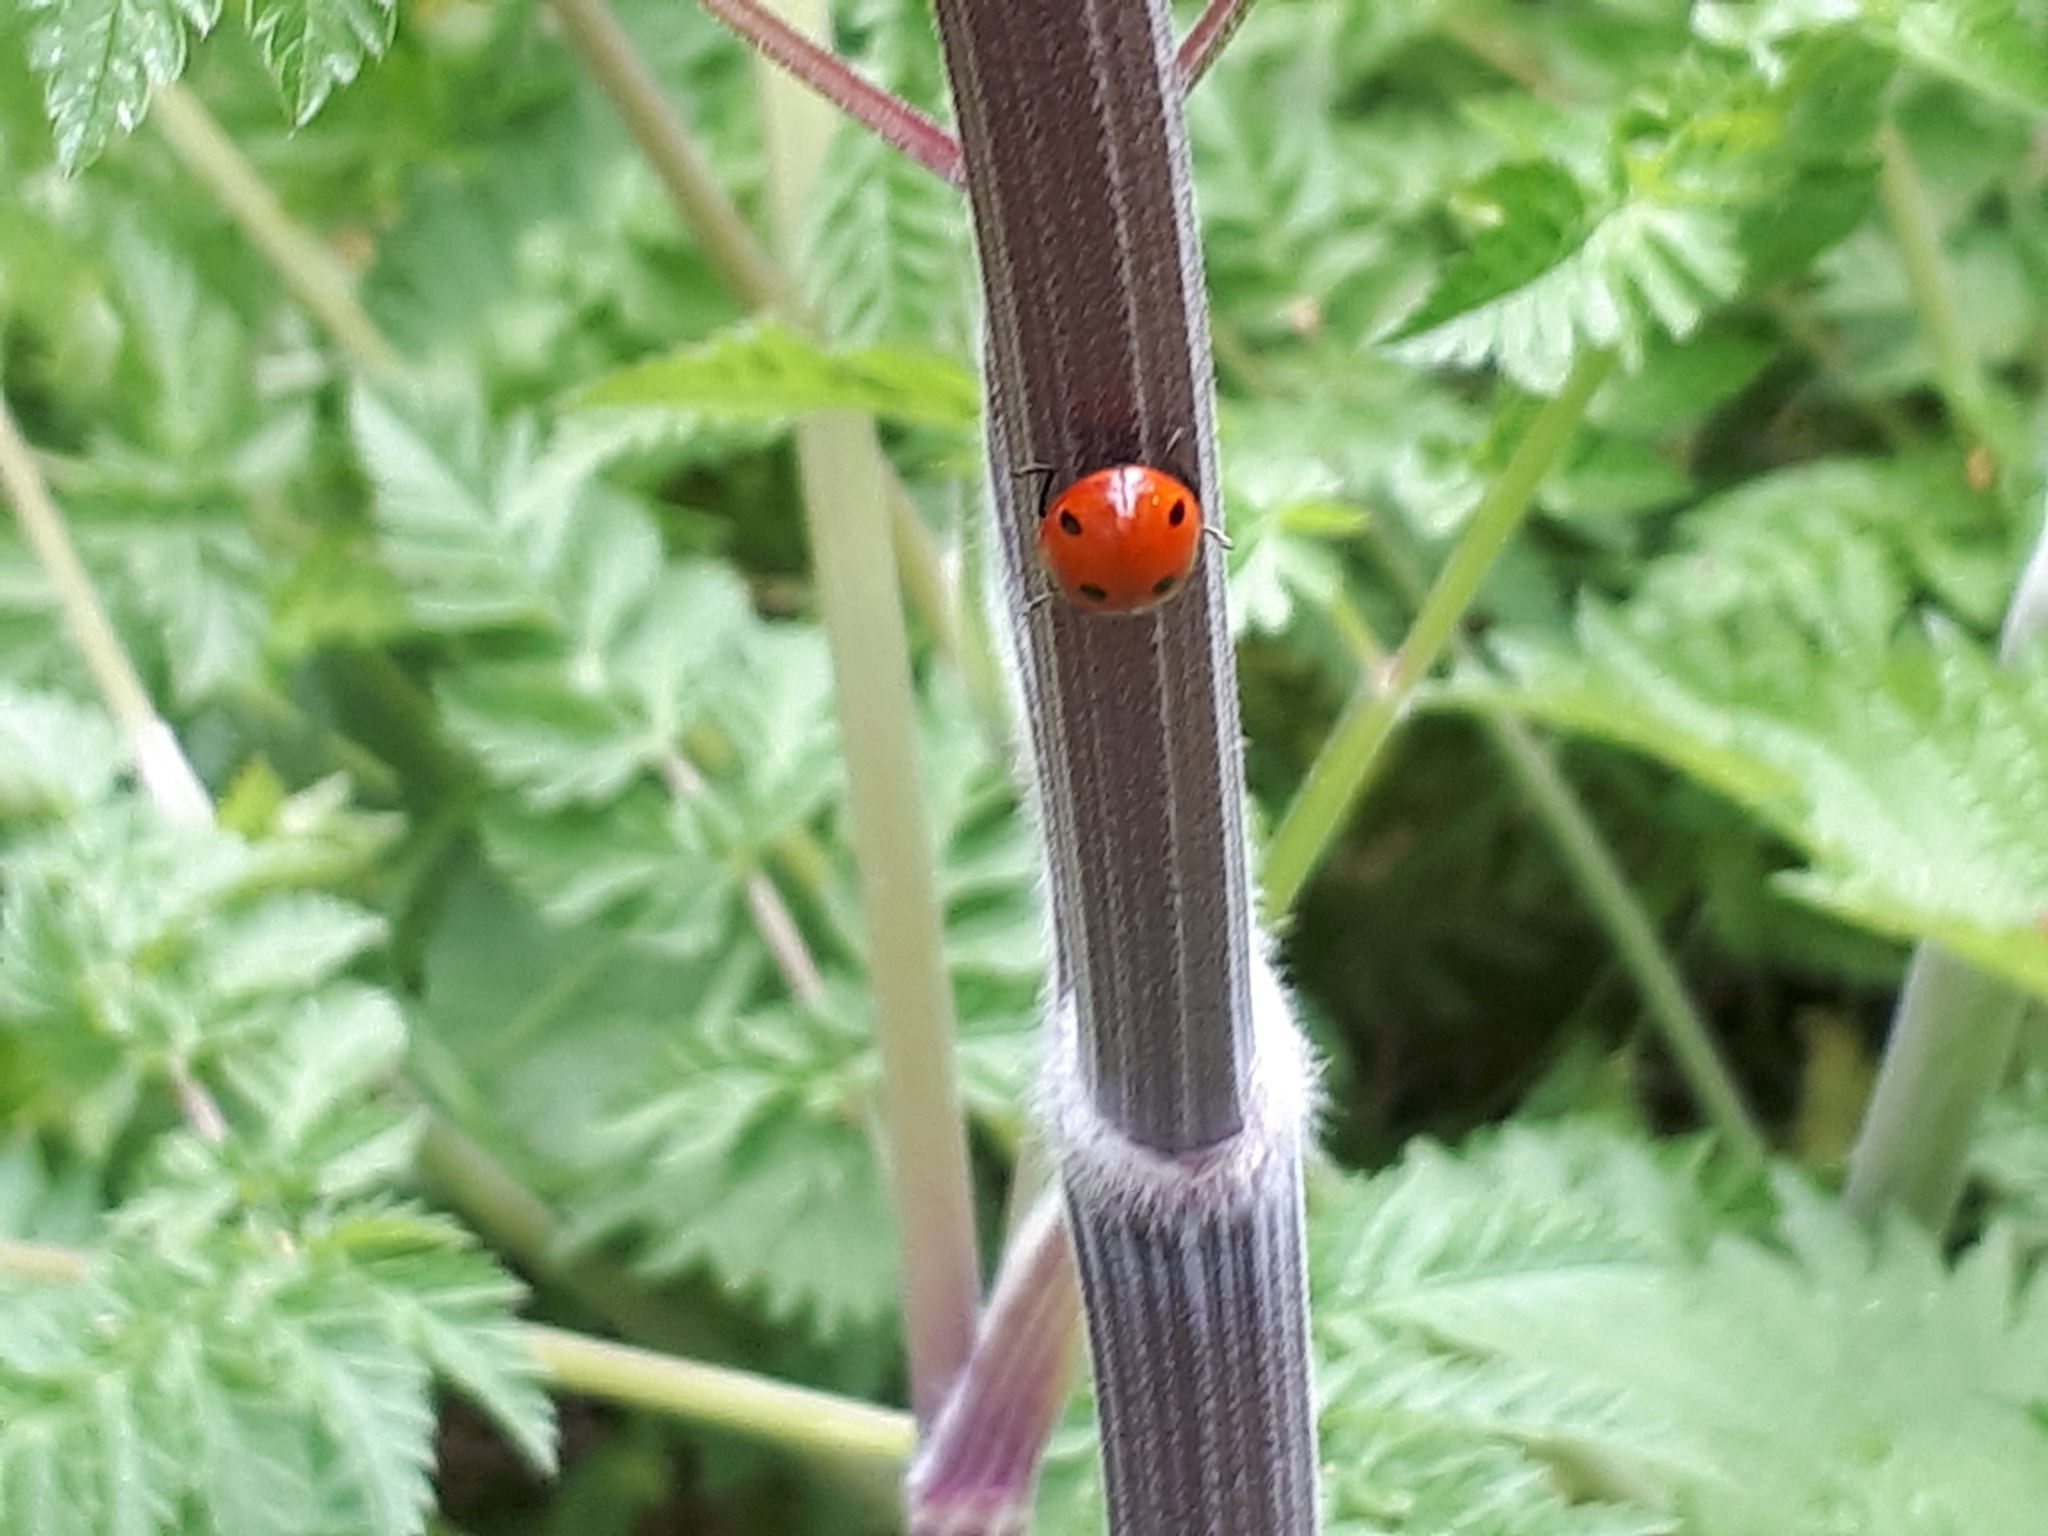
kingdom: Animalia
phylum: Arthropoda
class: Insecta
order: Coleoptera
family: Coccinellidae
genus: Coccinella
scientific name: Coccinella septempunctata
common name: Sevenspotted lady beetle
